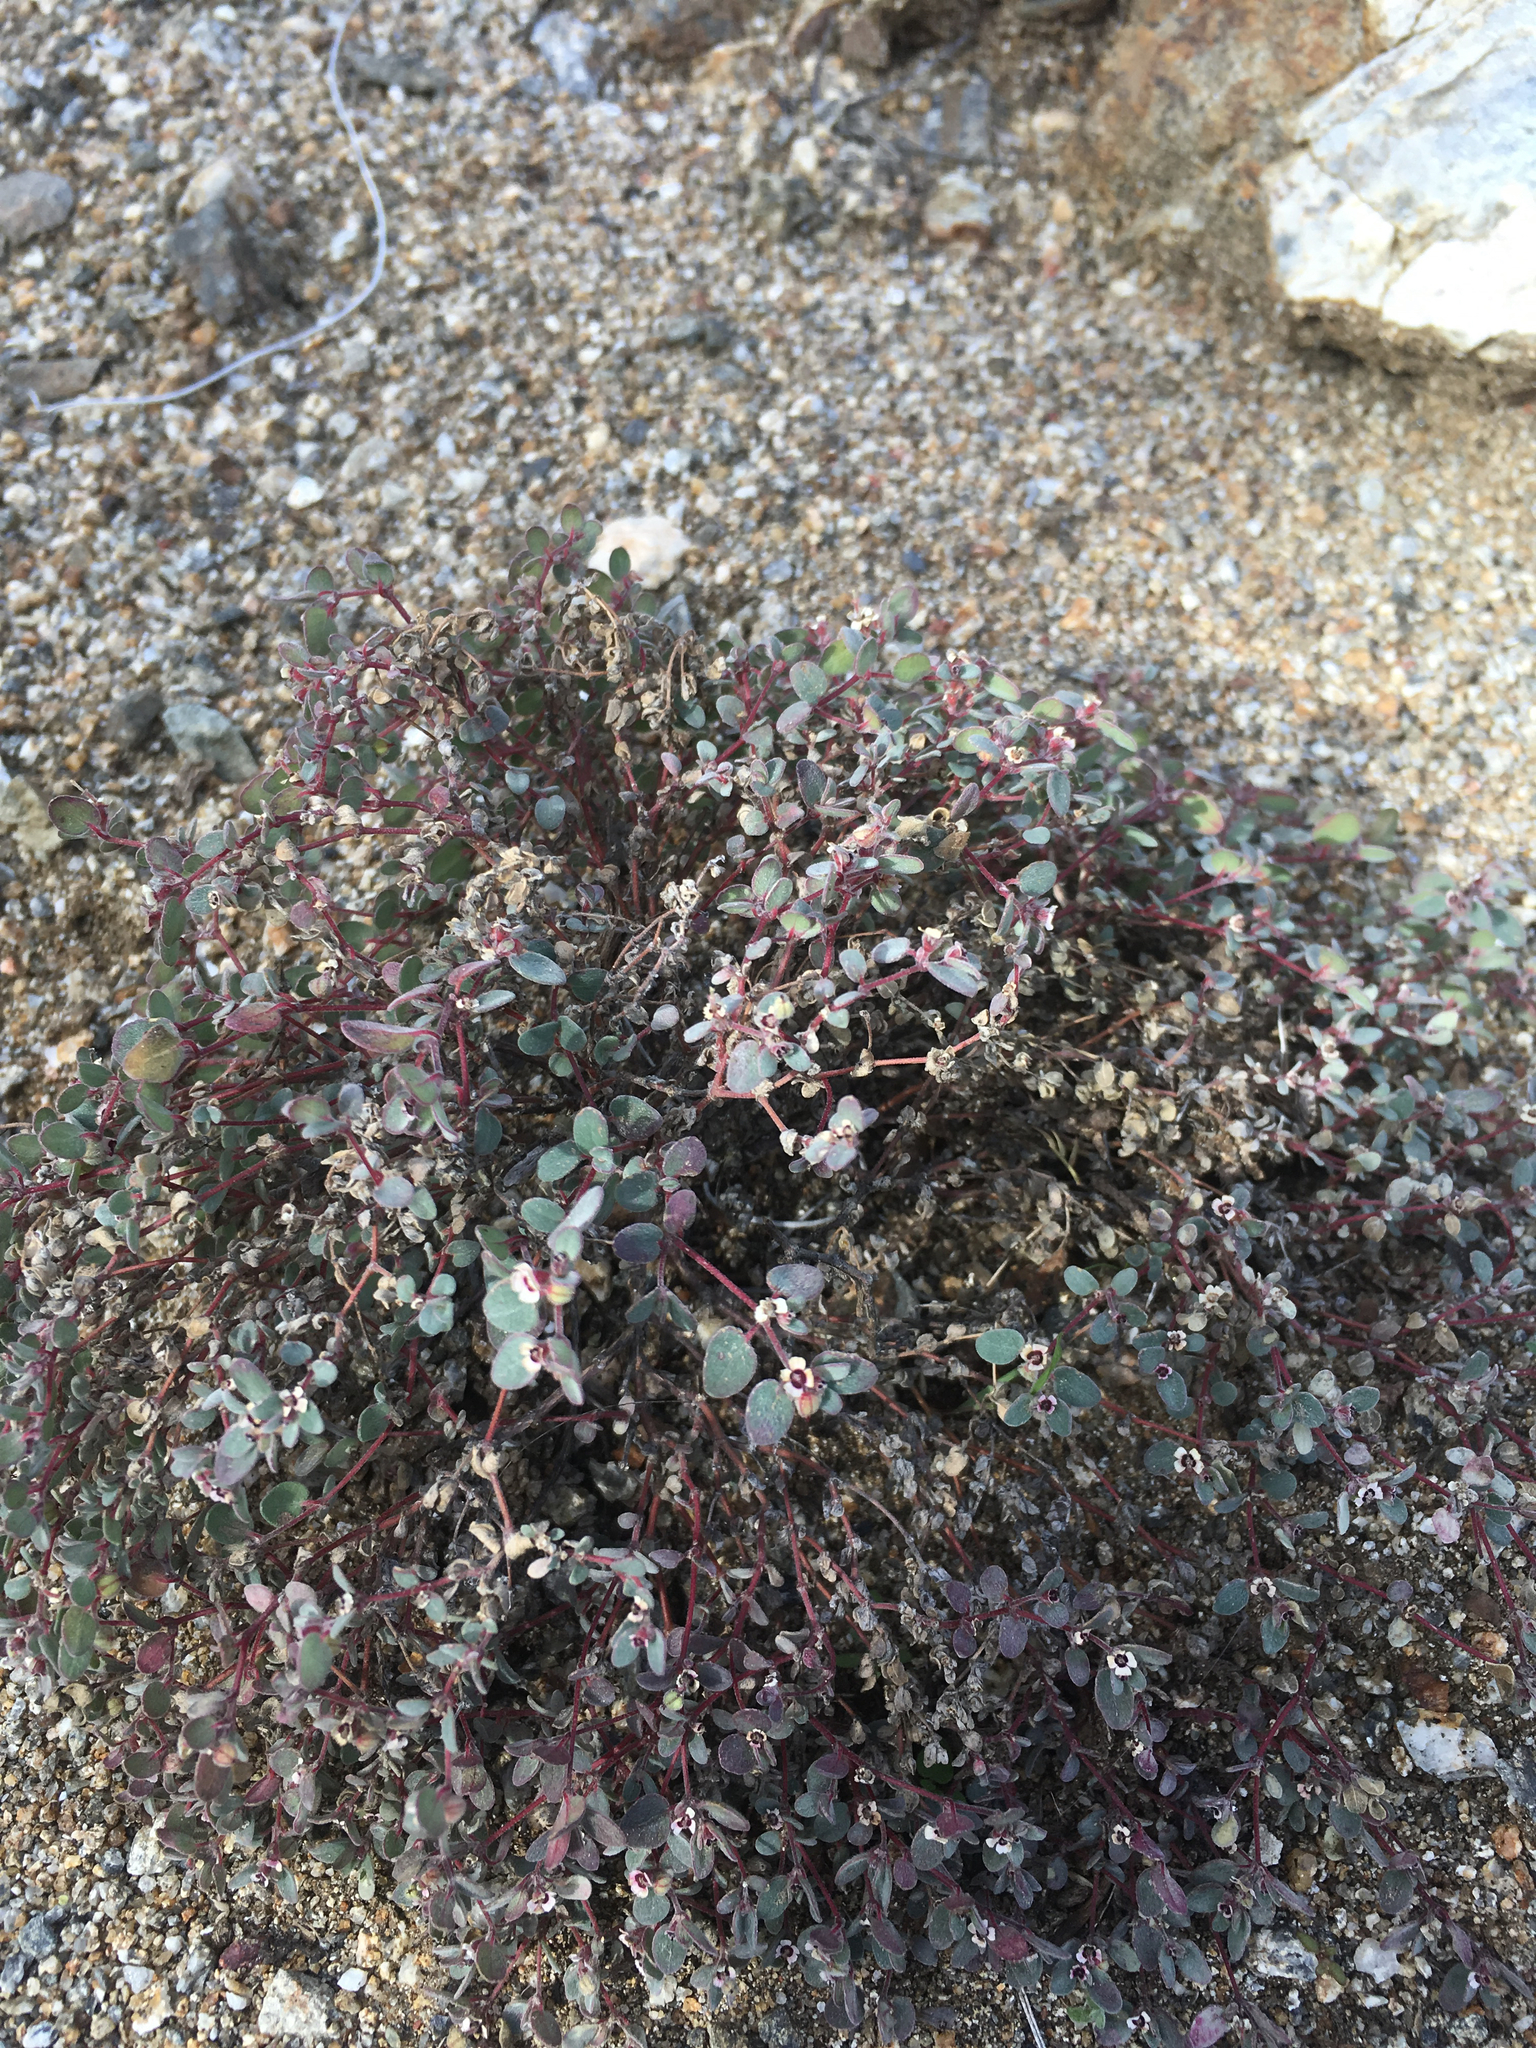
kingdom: Plantae
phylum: Tracheophyta
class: Magnoliopsida
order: Malpighiales
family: Euphorbiaceae
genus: Euphorbia
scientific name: Euphorbia melanadenia
